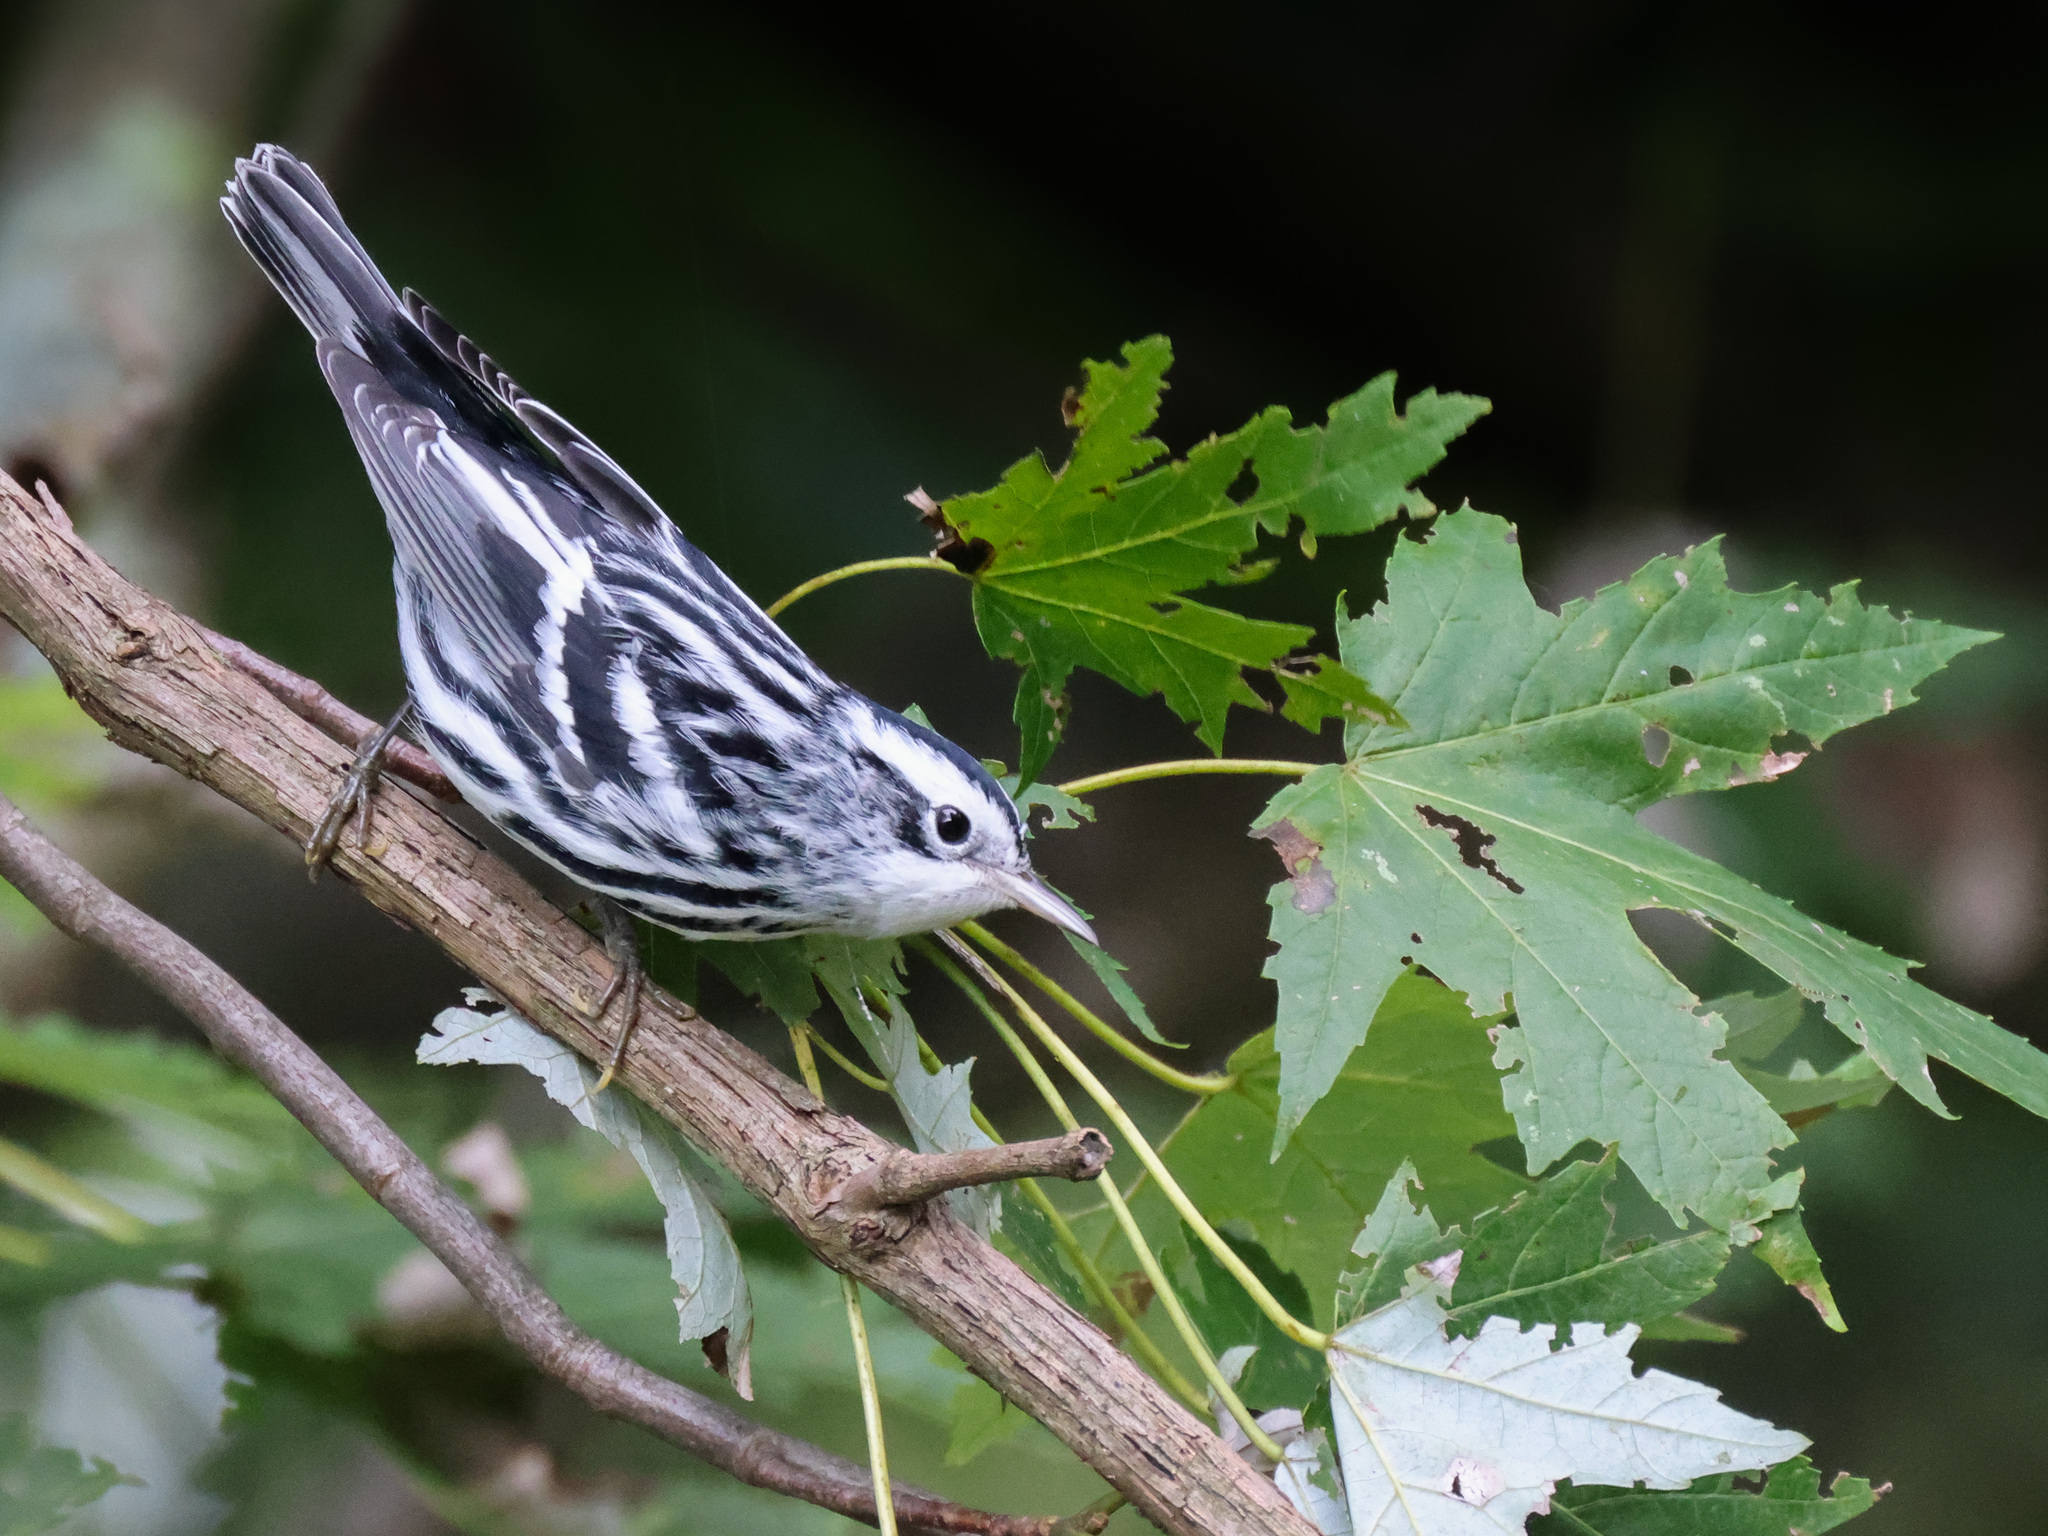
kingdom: Animalia
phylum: Chordata
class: Aves
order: Passeriformes
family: Parulidae
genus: Mniotilta
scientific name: Mniotilta varia
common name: Black-and-white warbler
